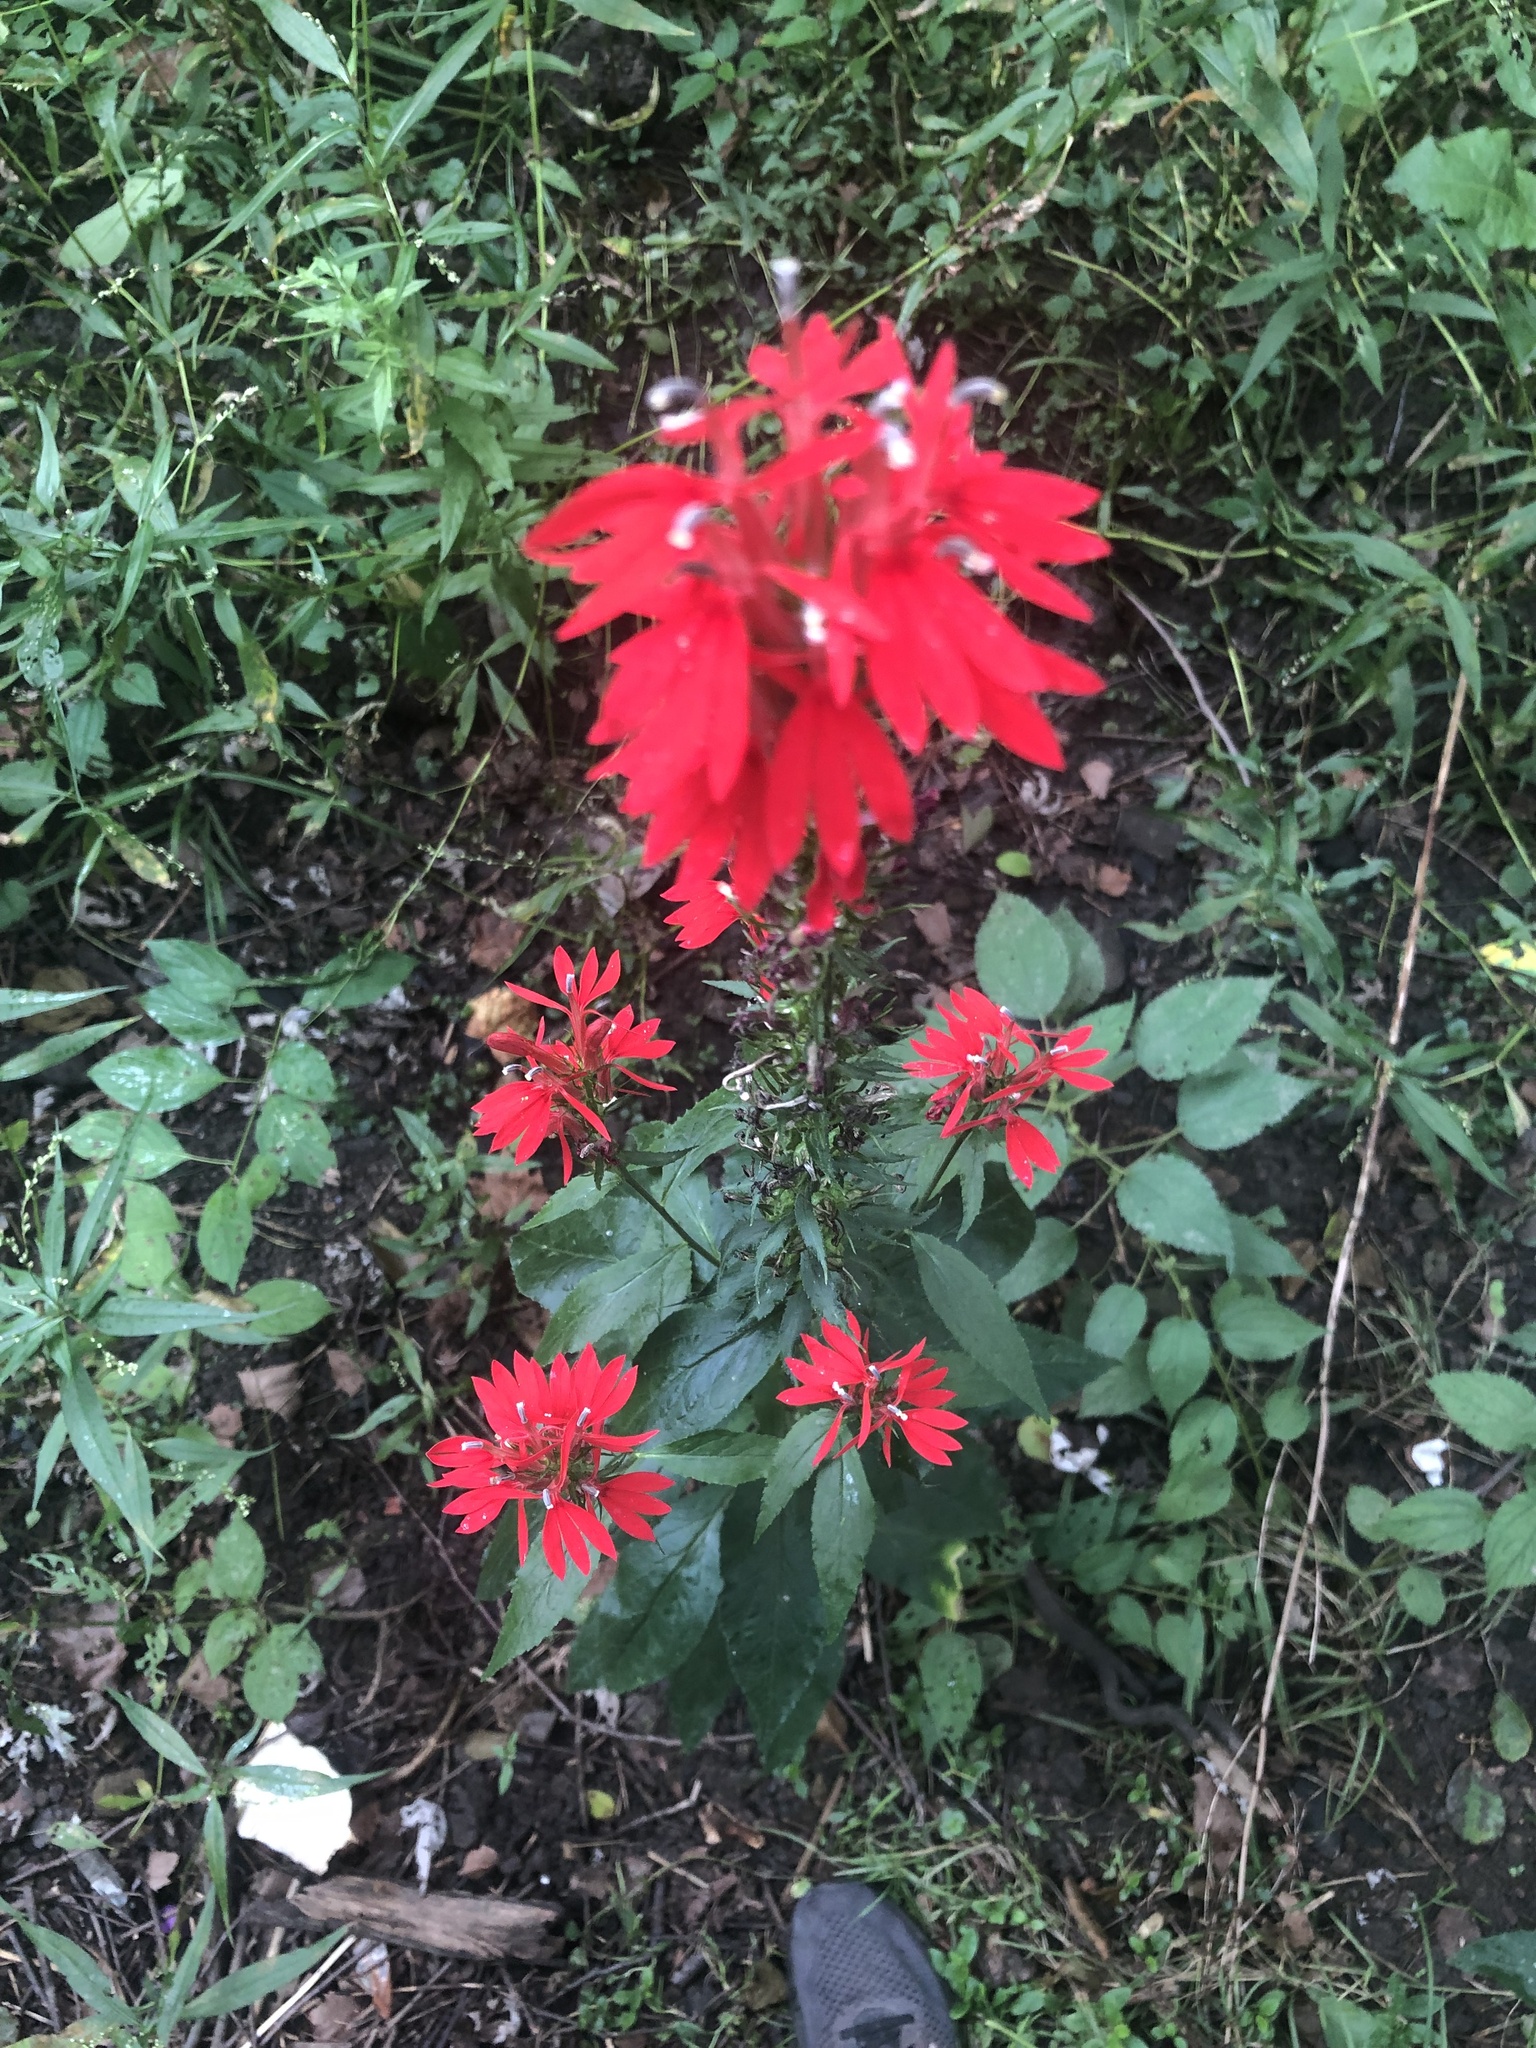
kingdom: Plantae
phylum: Tracheophyta
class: Magnoliopsida
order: Asterales
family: Campanulaceae
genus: Lobelia
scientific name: Lobelia cardinalis
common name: Cardinal flower
